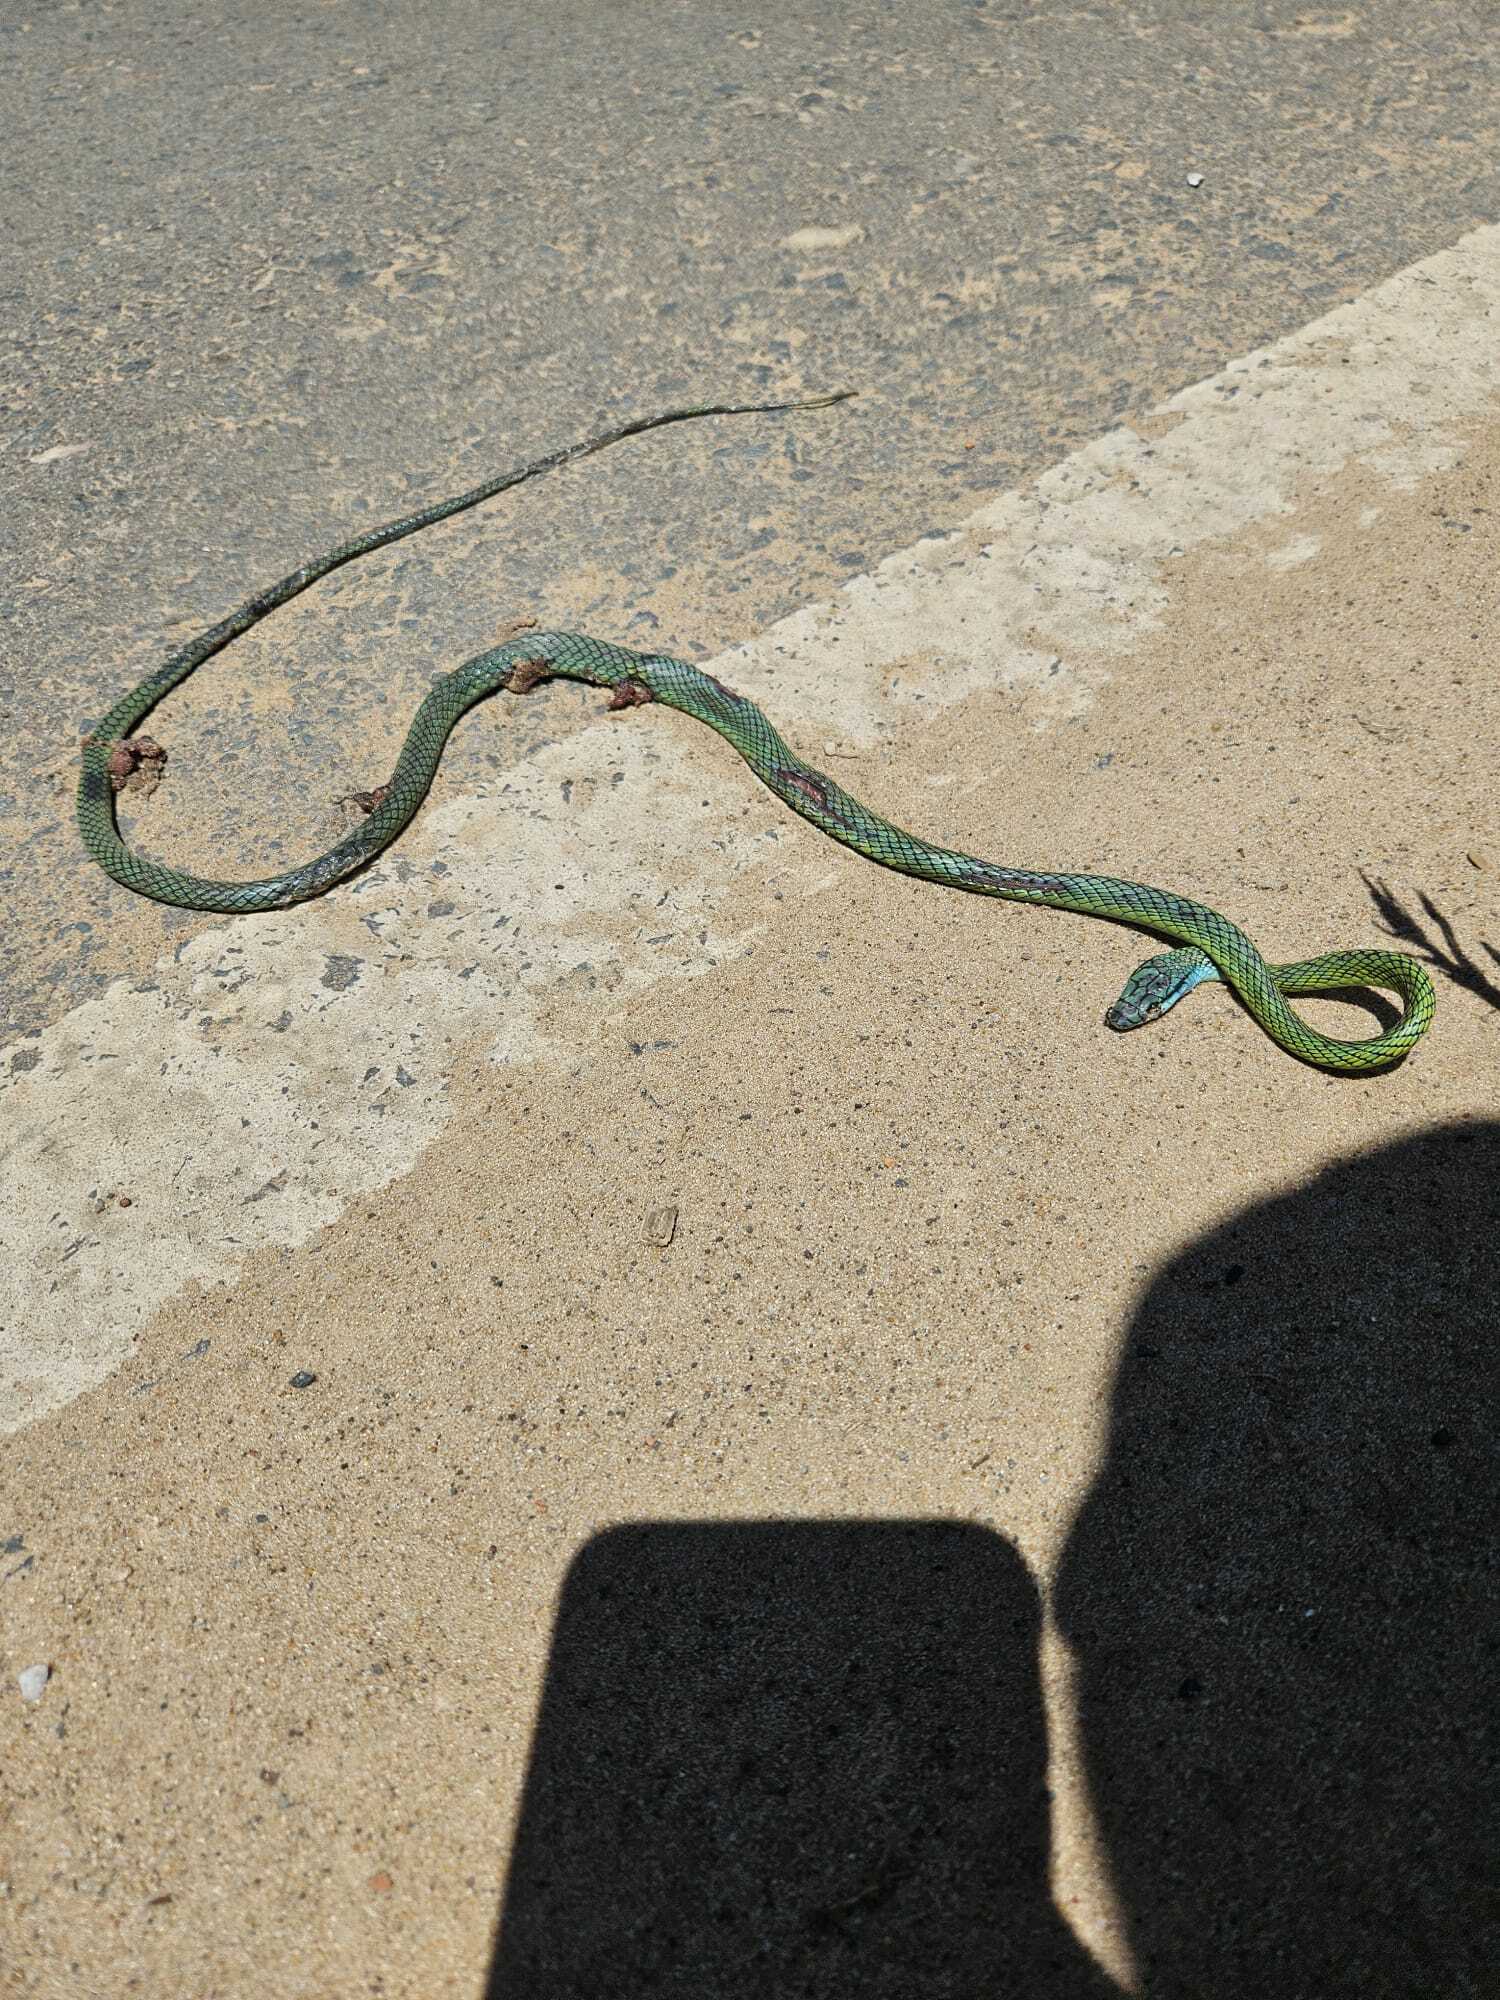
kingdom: Animalia
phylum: Chordata
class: Squamata
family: Colubridae
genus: Leptophis
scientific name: Leptophis ahaetulla
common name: Parrot snake
